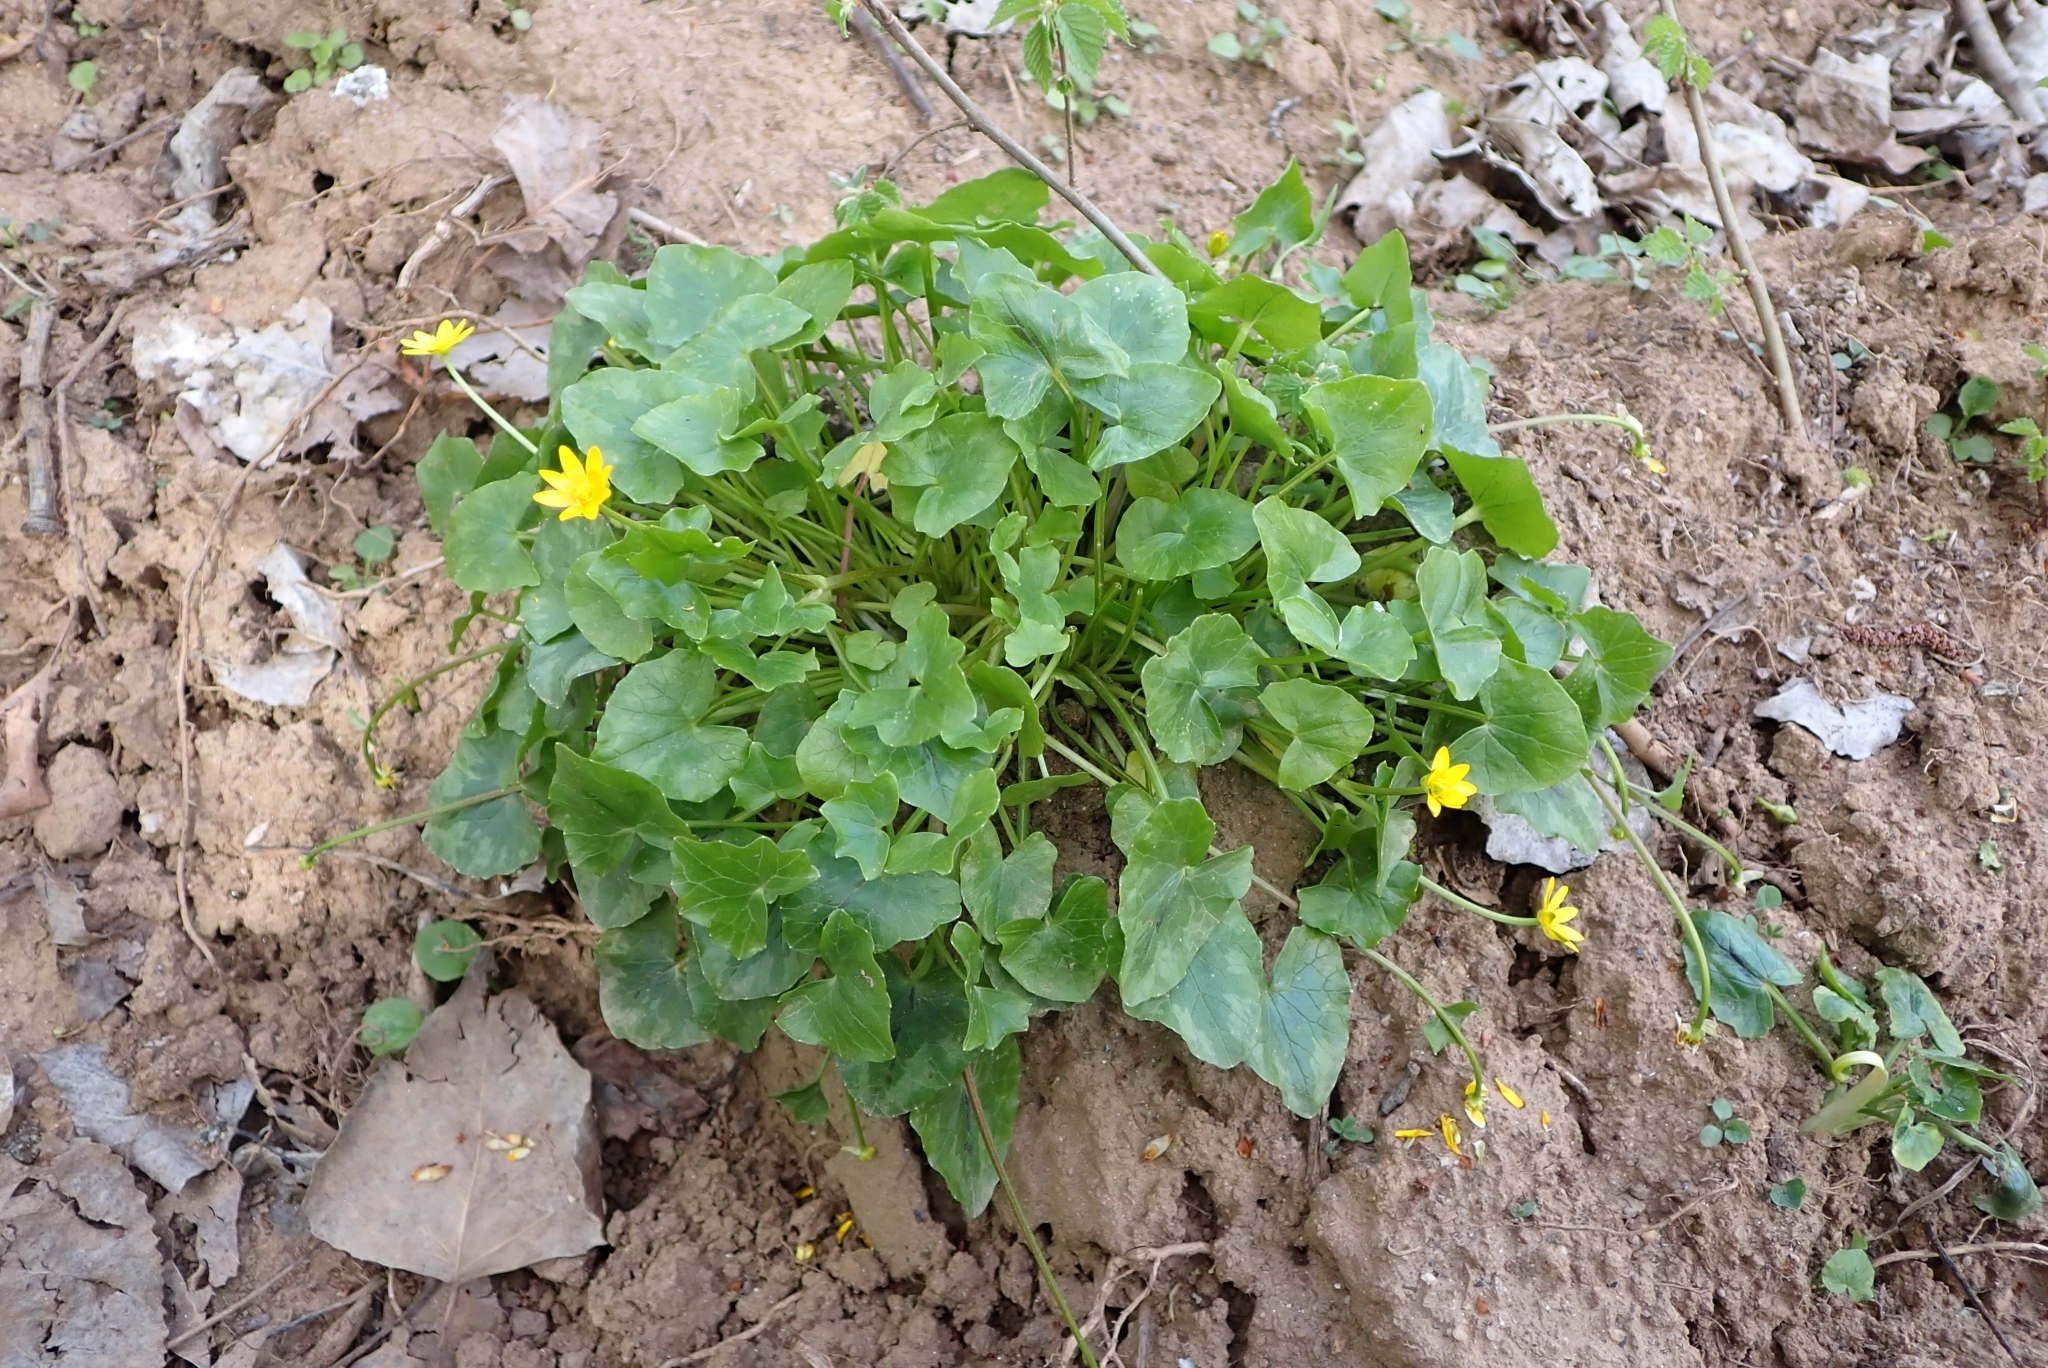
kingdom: Plantae
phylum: Tracheophyta
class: Magnoliopsida
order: Ranunculales
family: Ranunculaceae
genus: Ficaria
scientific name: Ficaria verna
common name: Lesser celandine
